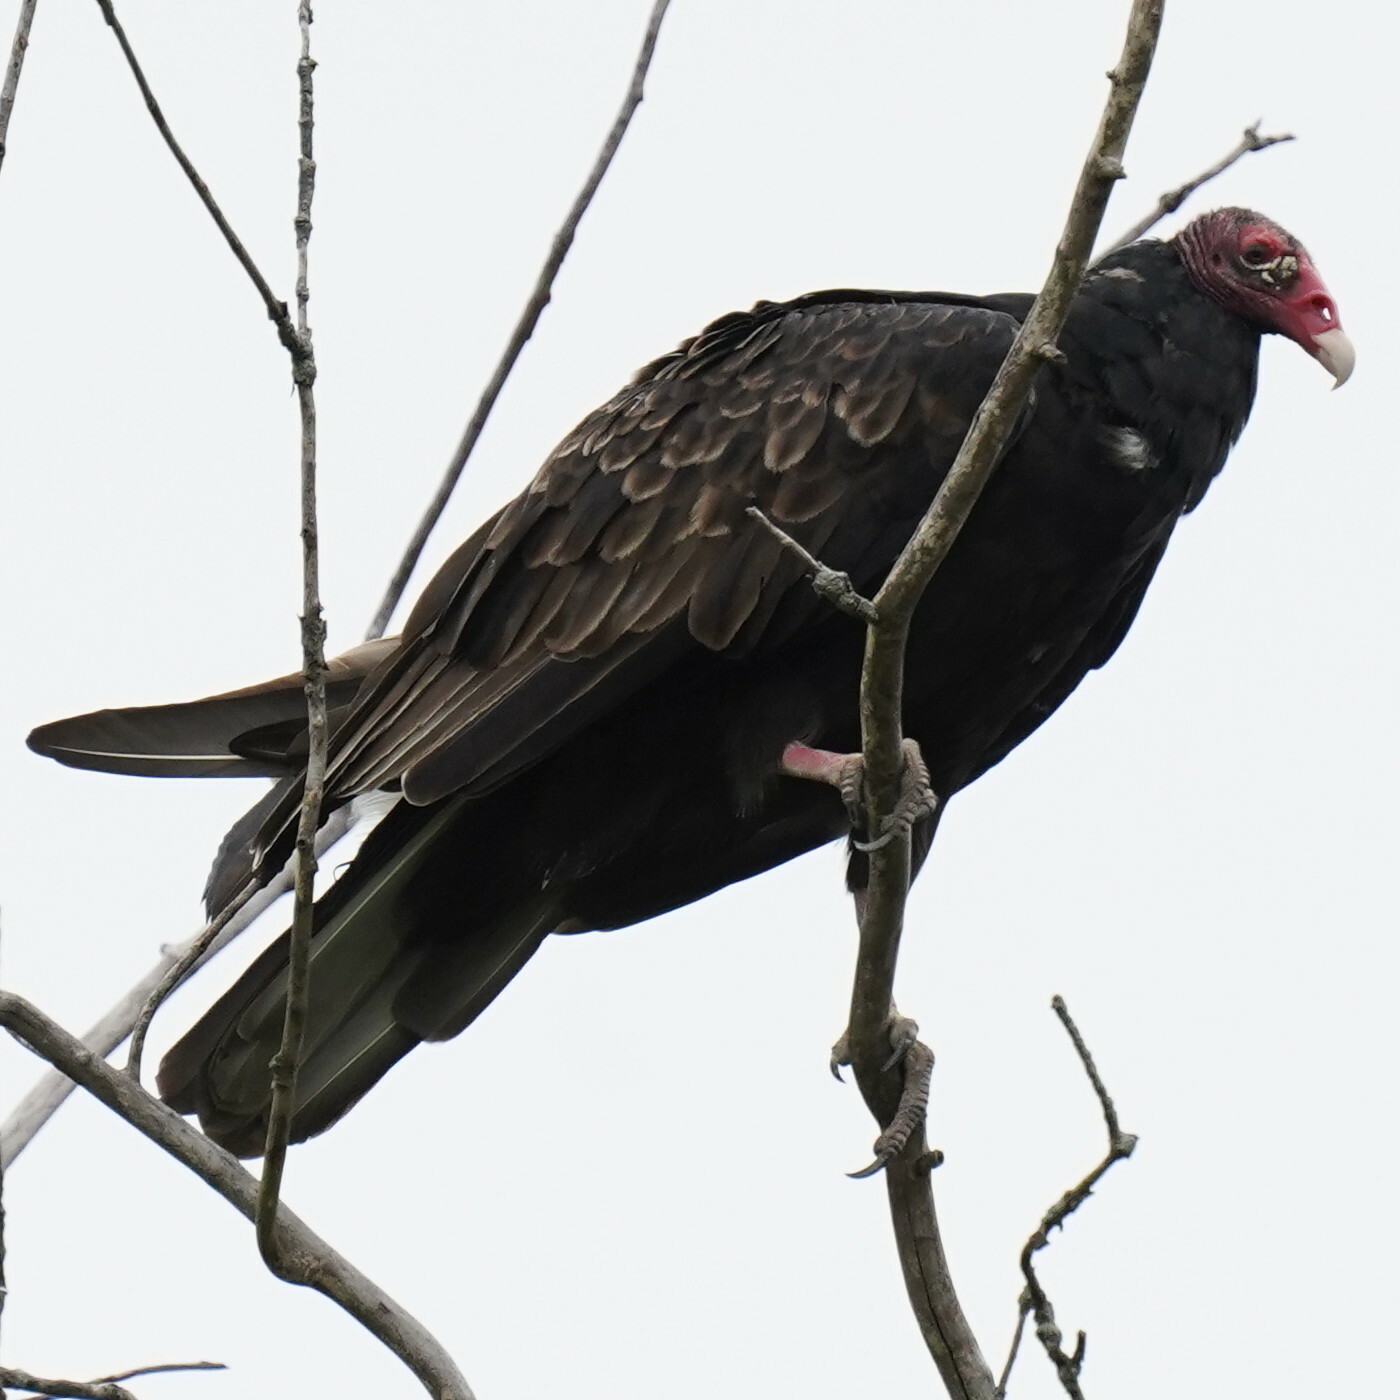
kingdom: Animalia
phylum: Chordata
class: Aves
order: Accipitriformes
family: Cathartidae
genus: Cathartes
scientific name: Cathartes aura
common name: Turkey vulture
